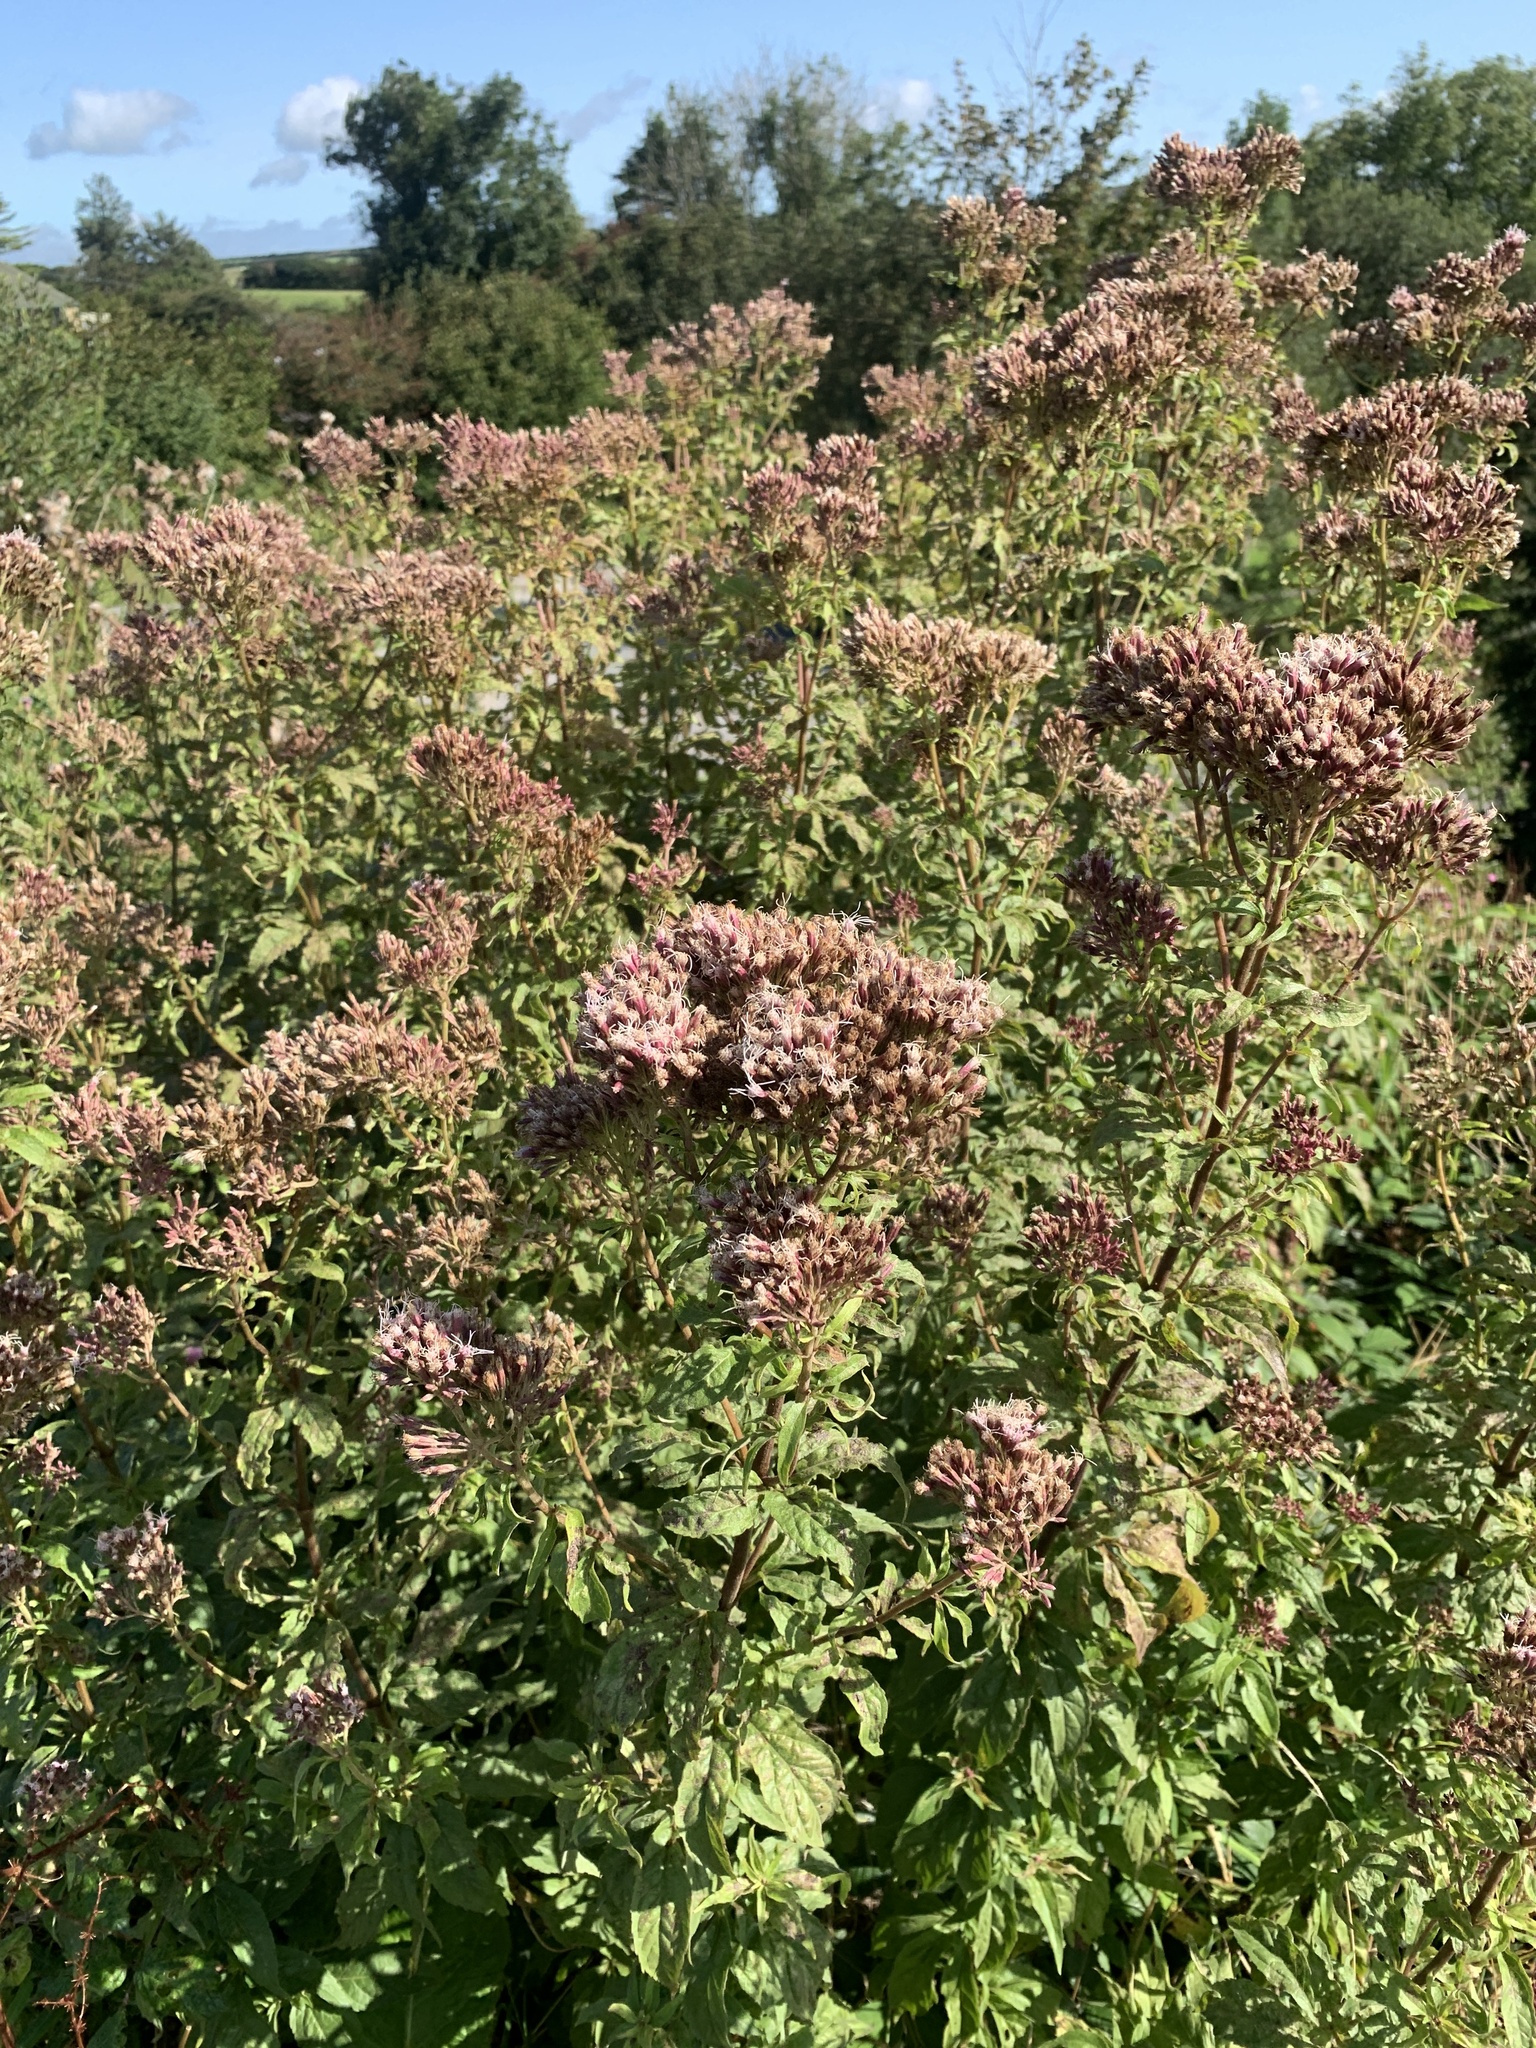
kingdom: Plantae
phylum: Tracheophyta
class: Magnoliopsida
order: Asterales
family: Asteraceae
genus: Eupatorium
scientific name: Eupatorium cannabinum
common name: Hemp-agrimony
